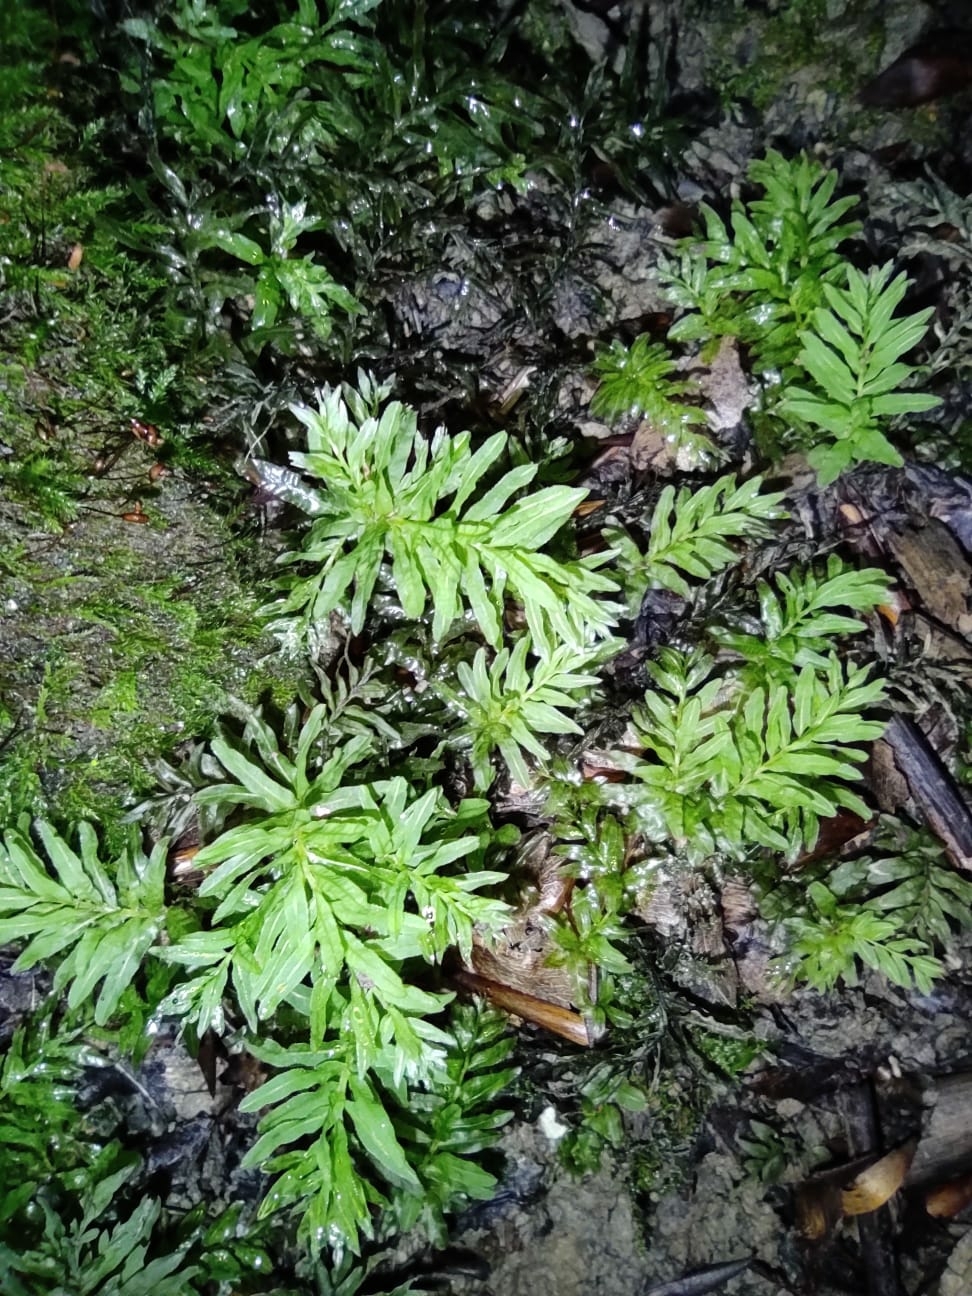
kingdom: Plantae
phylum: Bryophyta
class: Bryopsida
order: Bryales
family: Mniaceae
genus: Plagiomnium
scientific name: Plagiomnium undulatum
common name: Hart's-tongue thyme-moss
